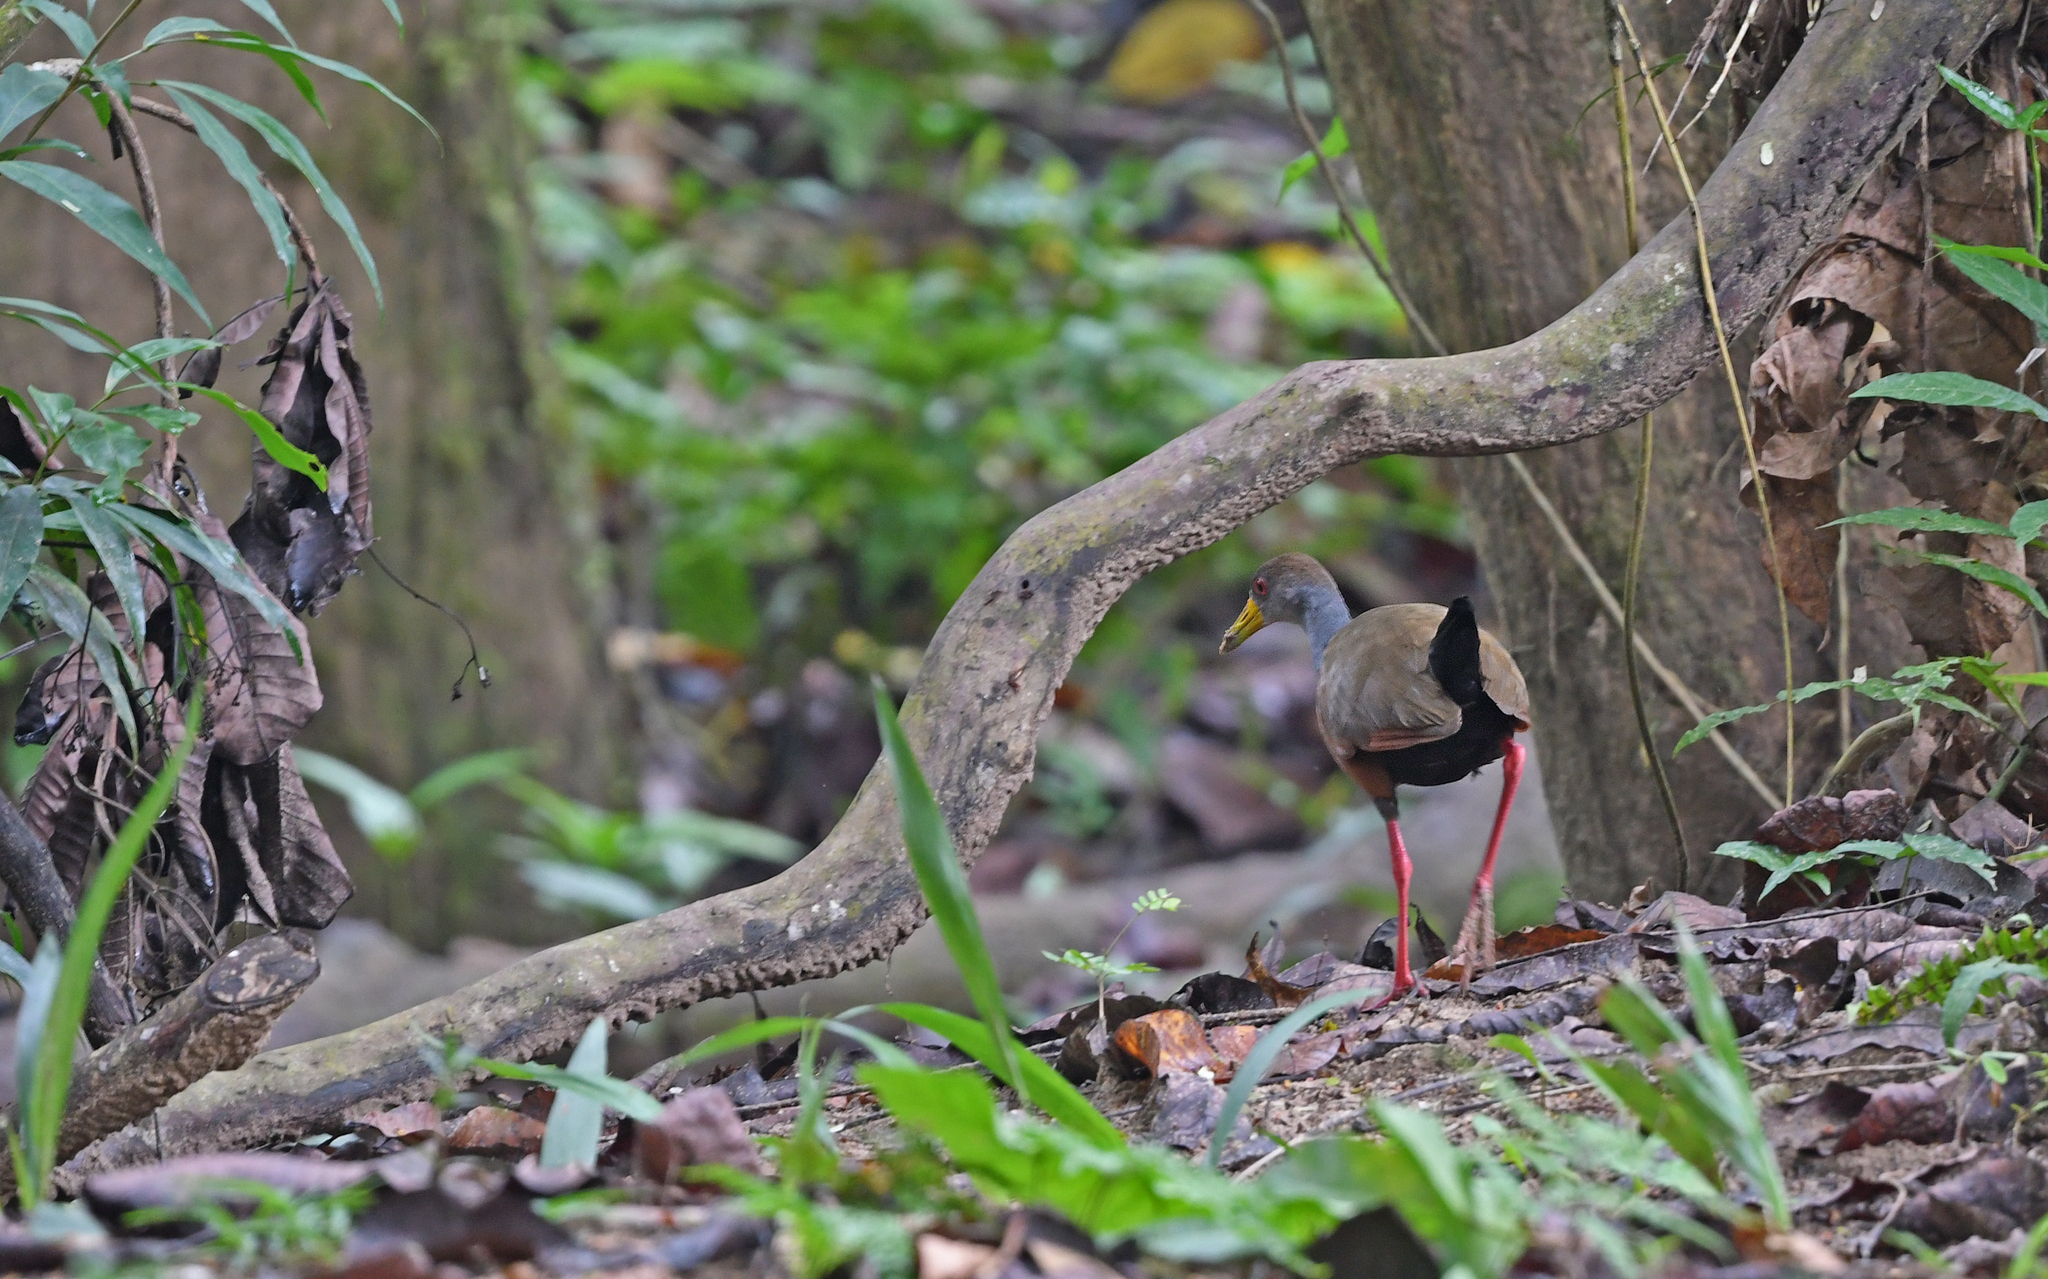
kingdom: Animalia
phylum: Chordata
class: Aves
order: Gruiformes
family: Rallidae
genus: Aramides
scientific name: Aramides cajanea
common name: Gray-necked wood-rail
